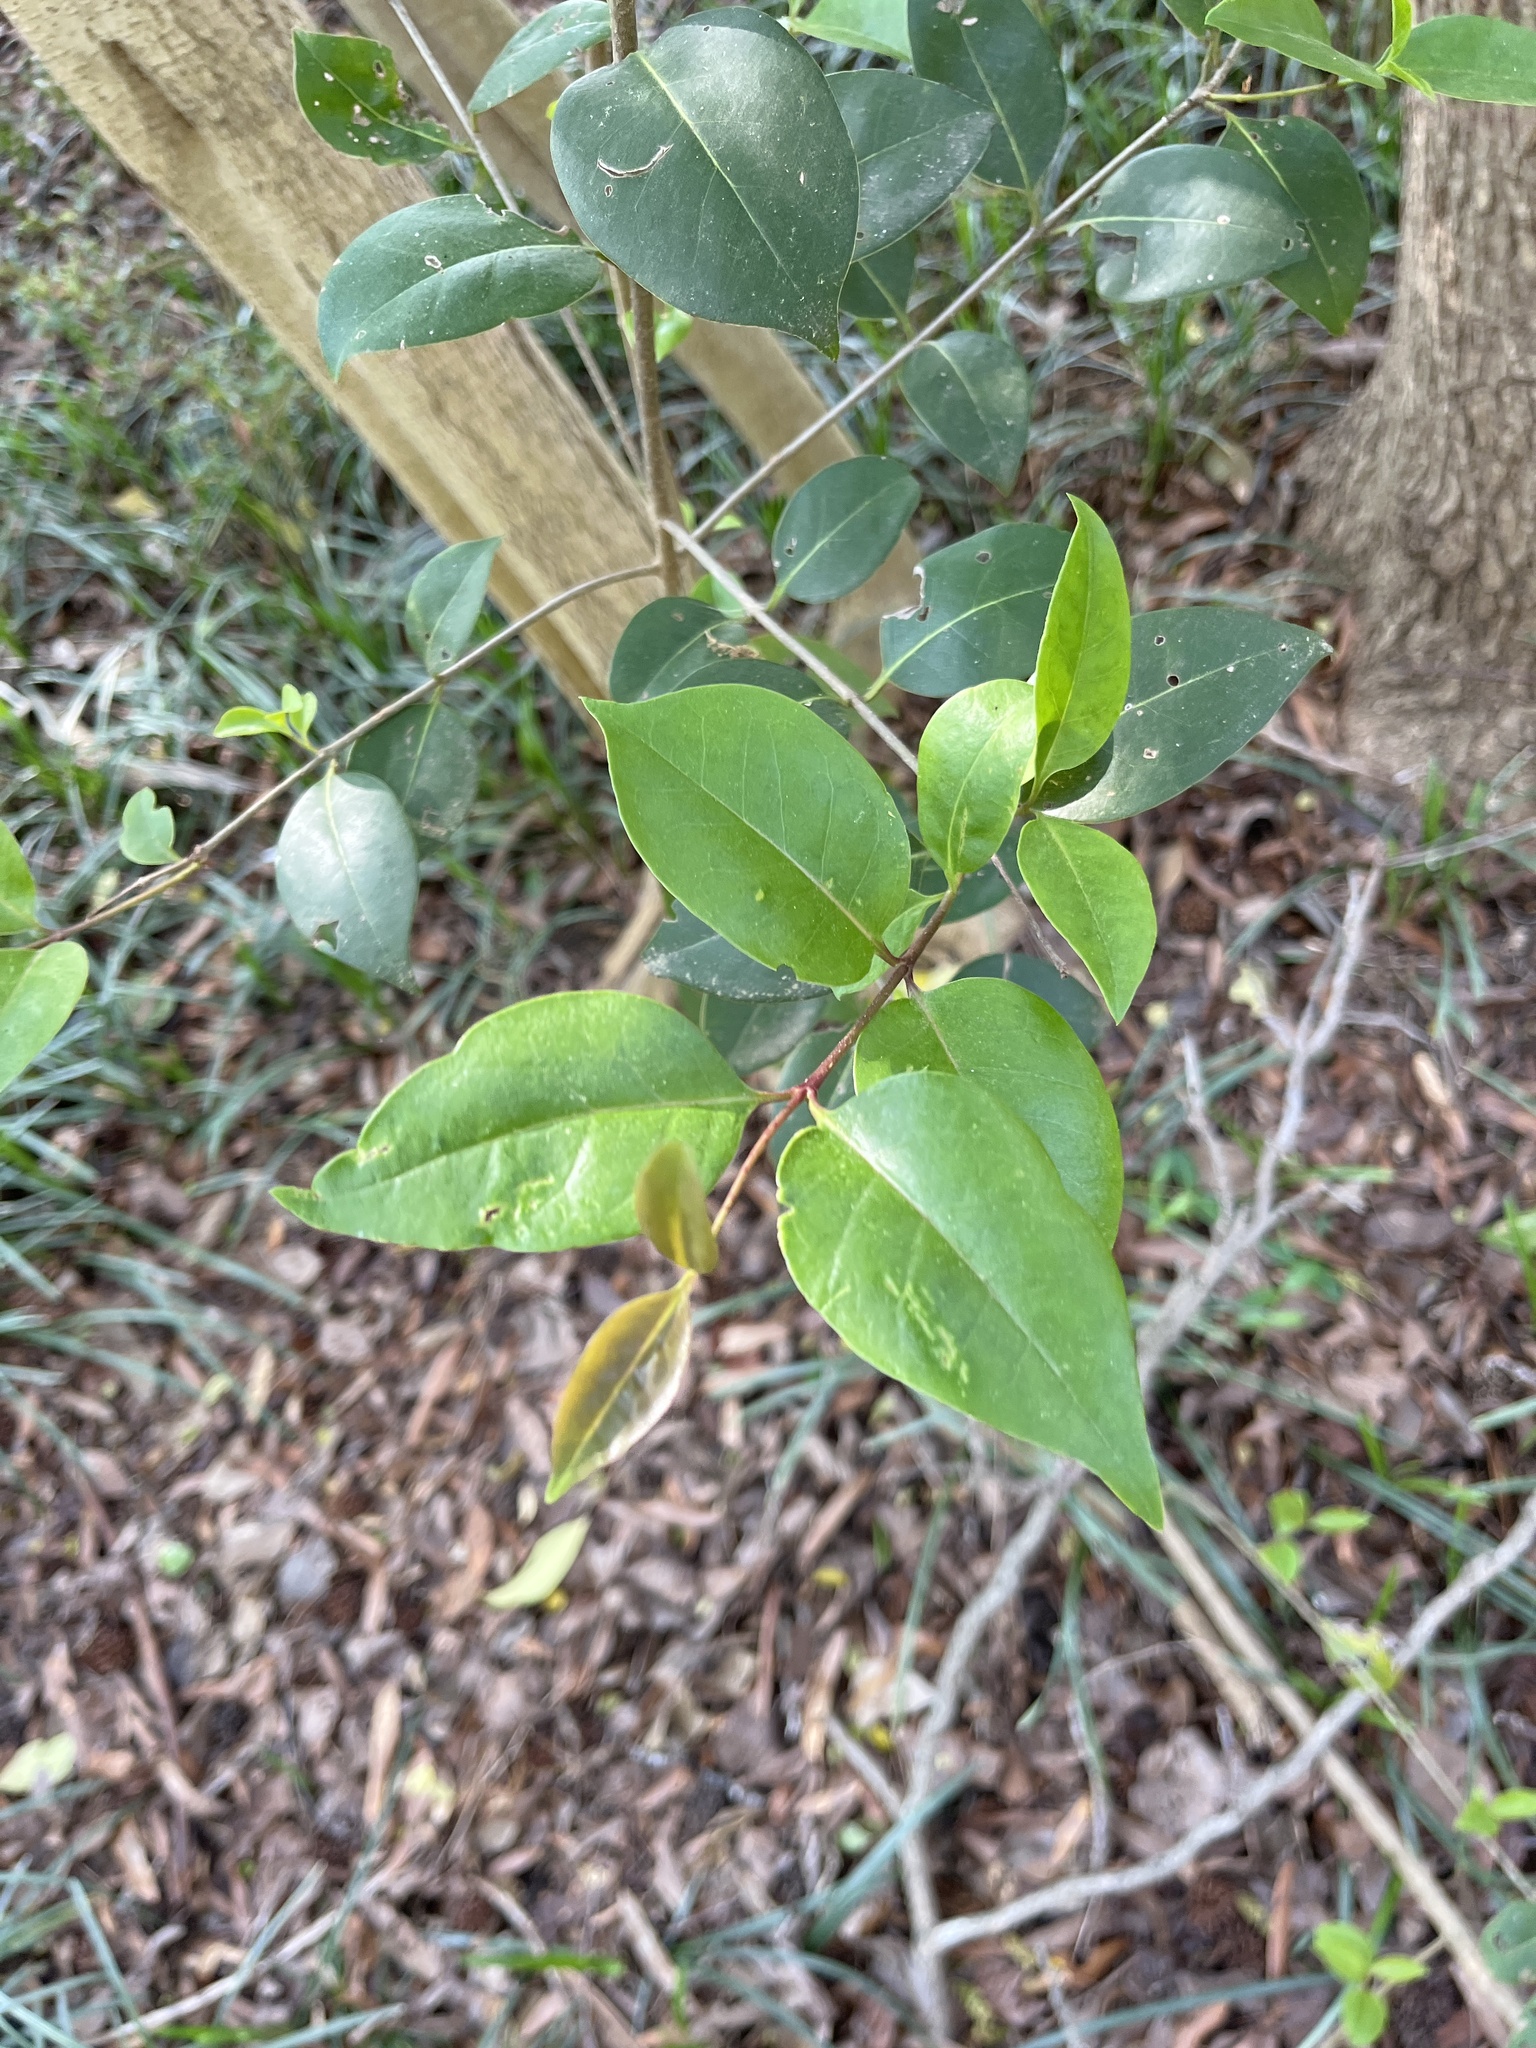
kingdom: Plantae
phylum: Tracheophyta
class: Magnoliopsida
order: Lamiales
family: Oleaceae
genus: Ligustrum
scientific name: Ligustrum lucidum
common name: Glossy privet
